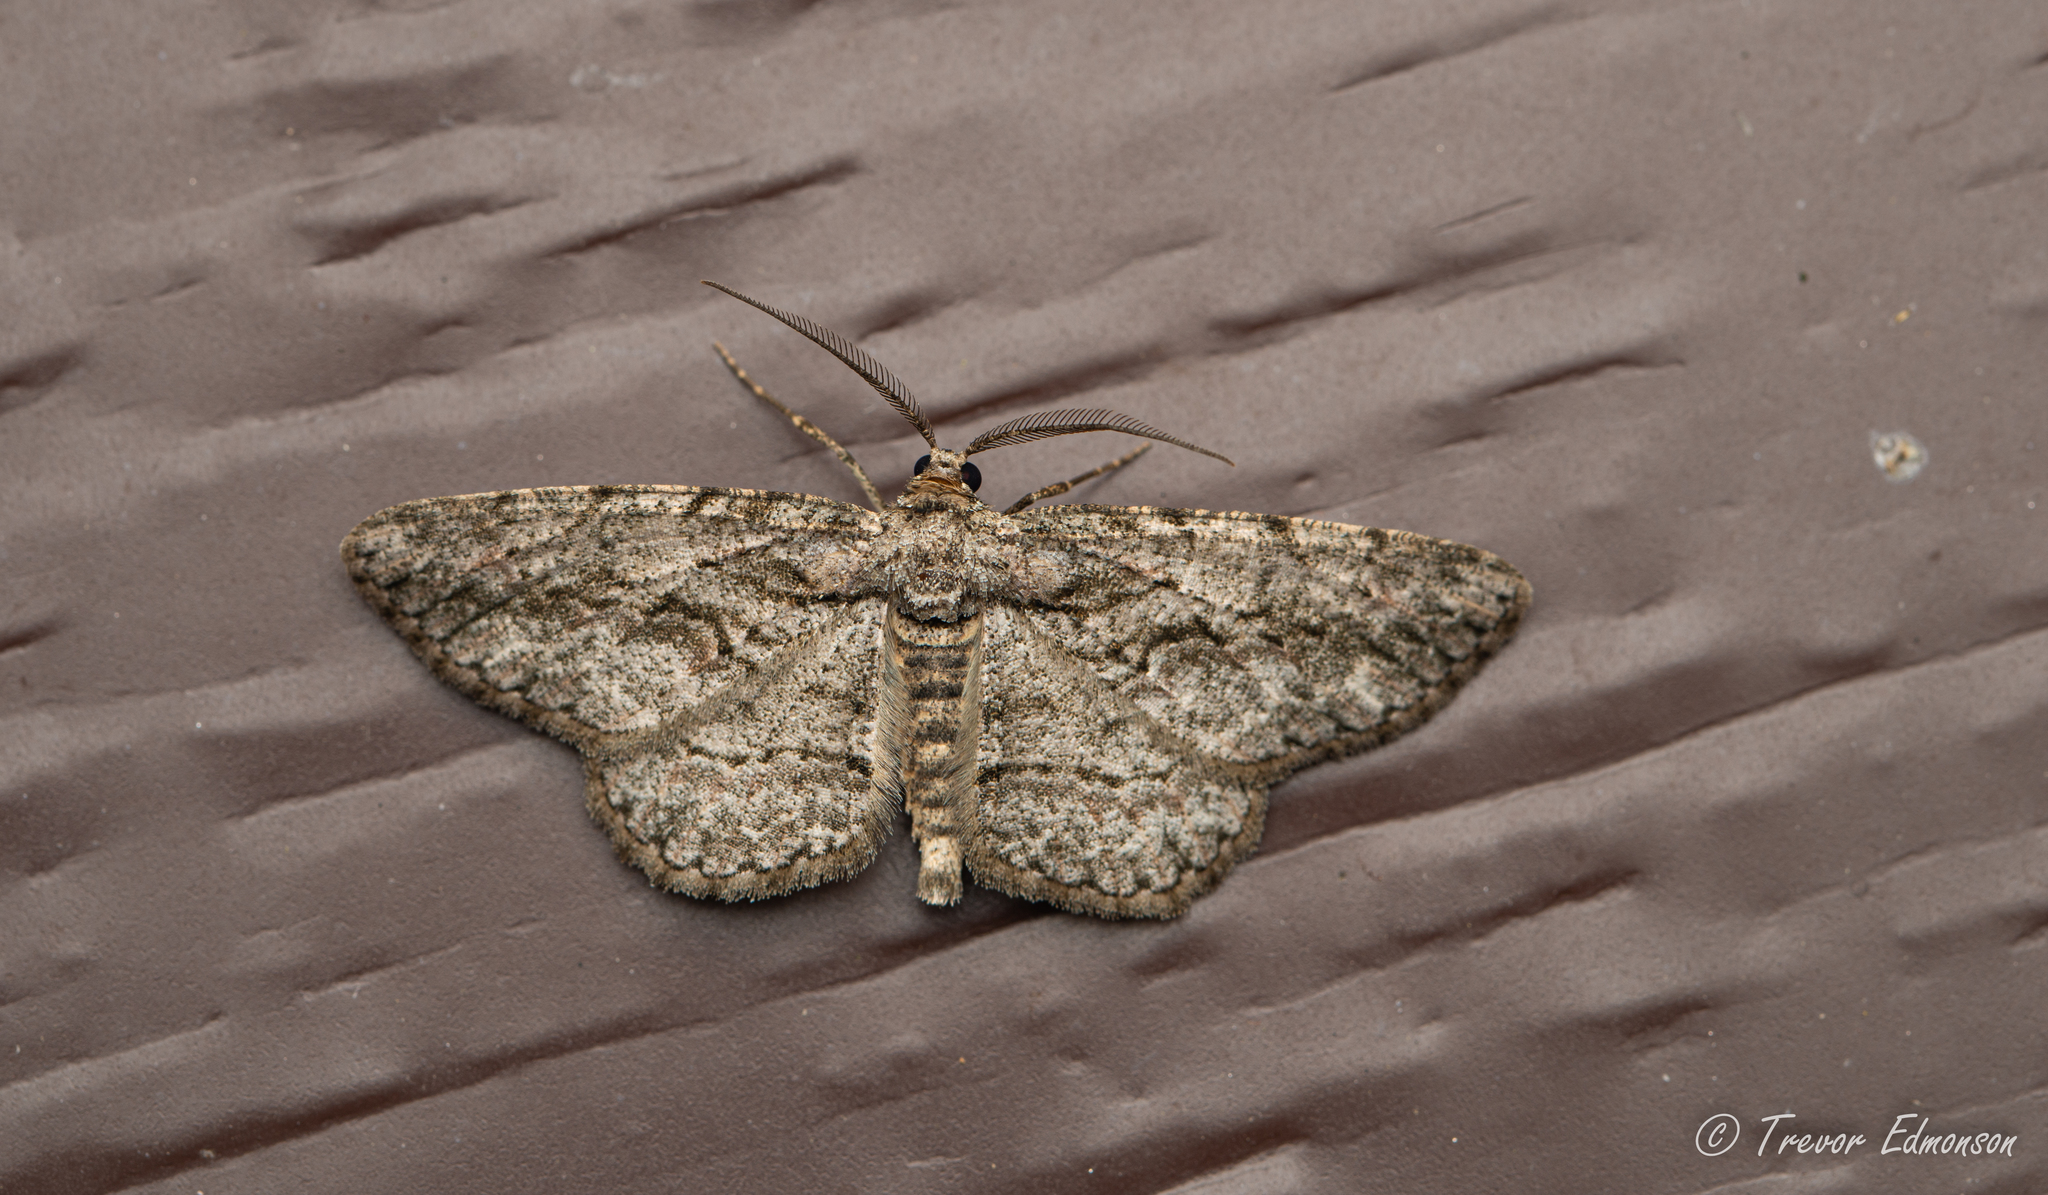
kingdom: Animalia
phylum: Arthropoda
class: Insecta
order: Lepidoptera
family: Geometridae
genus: Anavitrinella
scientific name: Anavitrinella pampinaria
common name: Common gray
